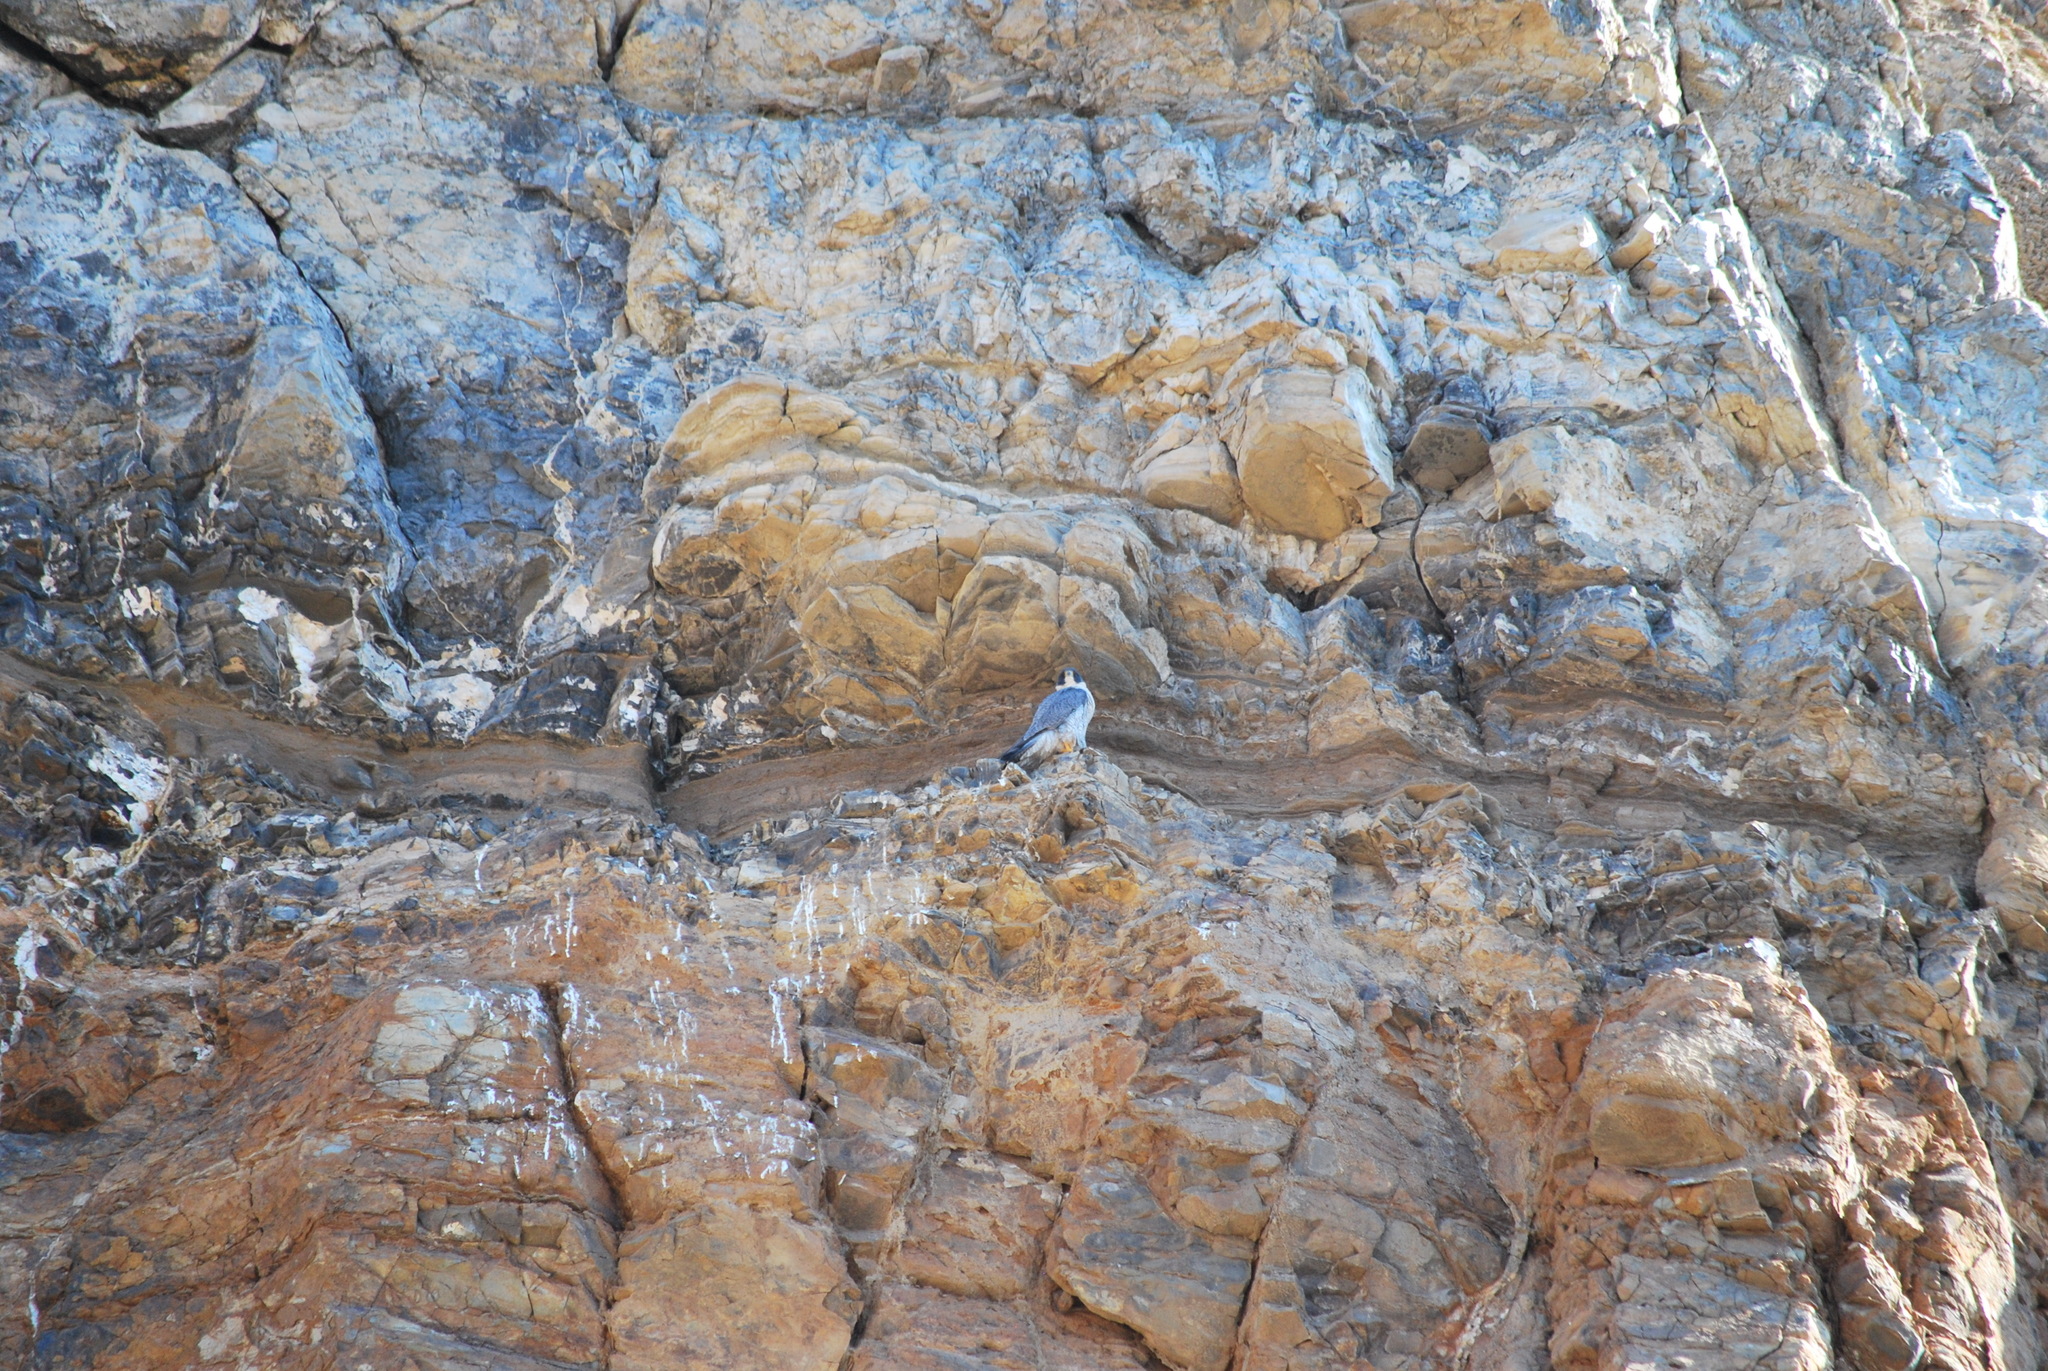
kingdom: Animalia
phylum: Chordata
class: Aves
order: Falconiformes
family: Falconidae
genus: Falco
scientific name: Falco peregrinus
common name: Peregrine falcon
